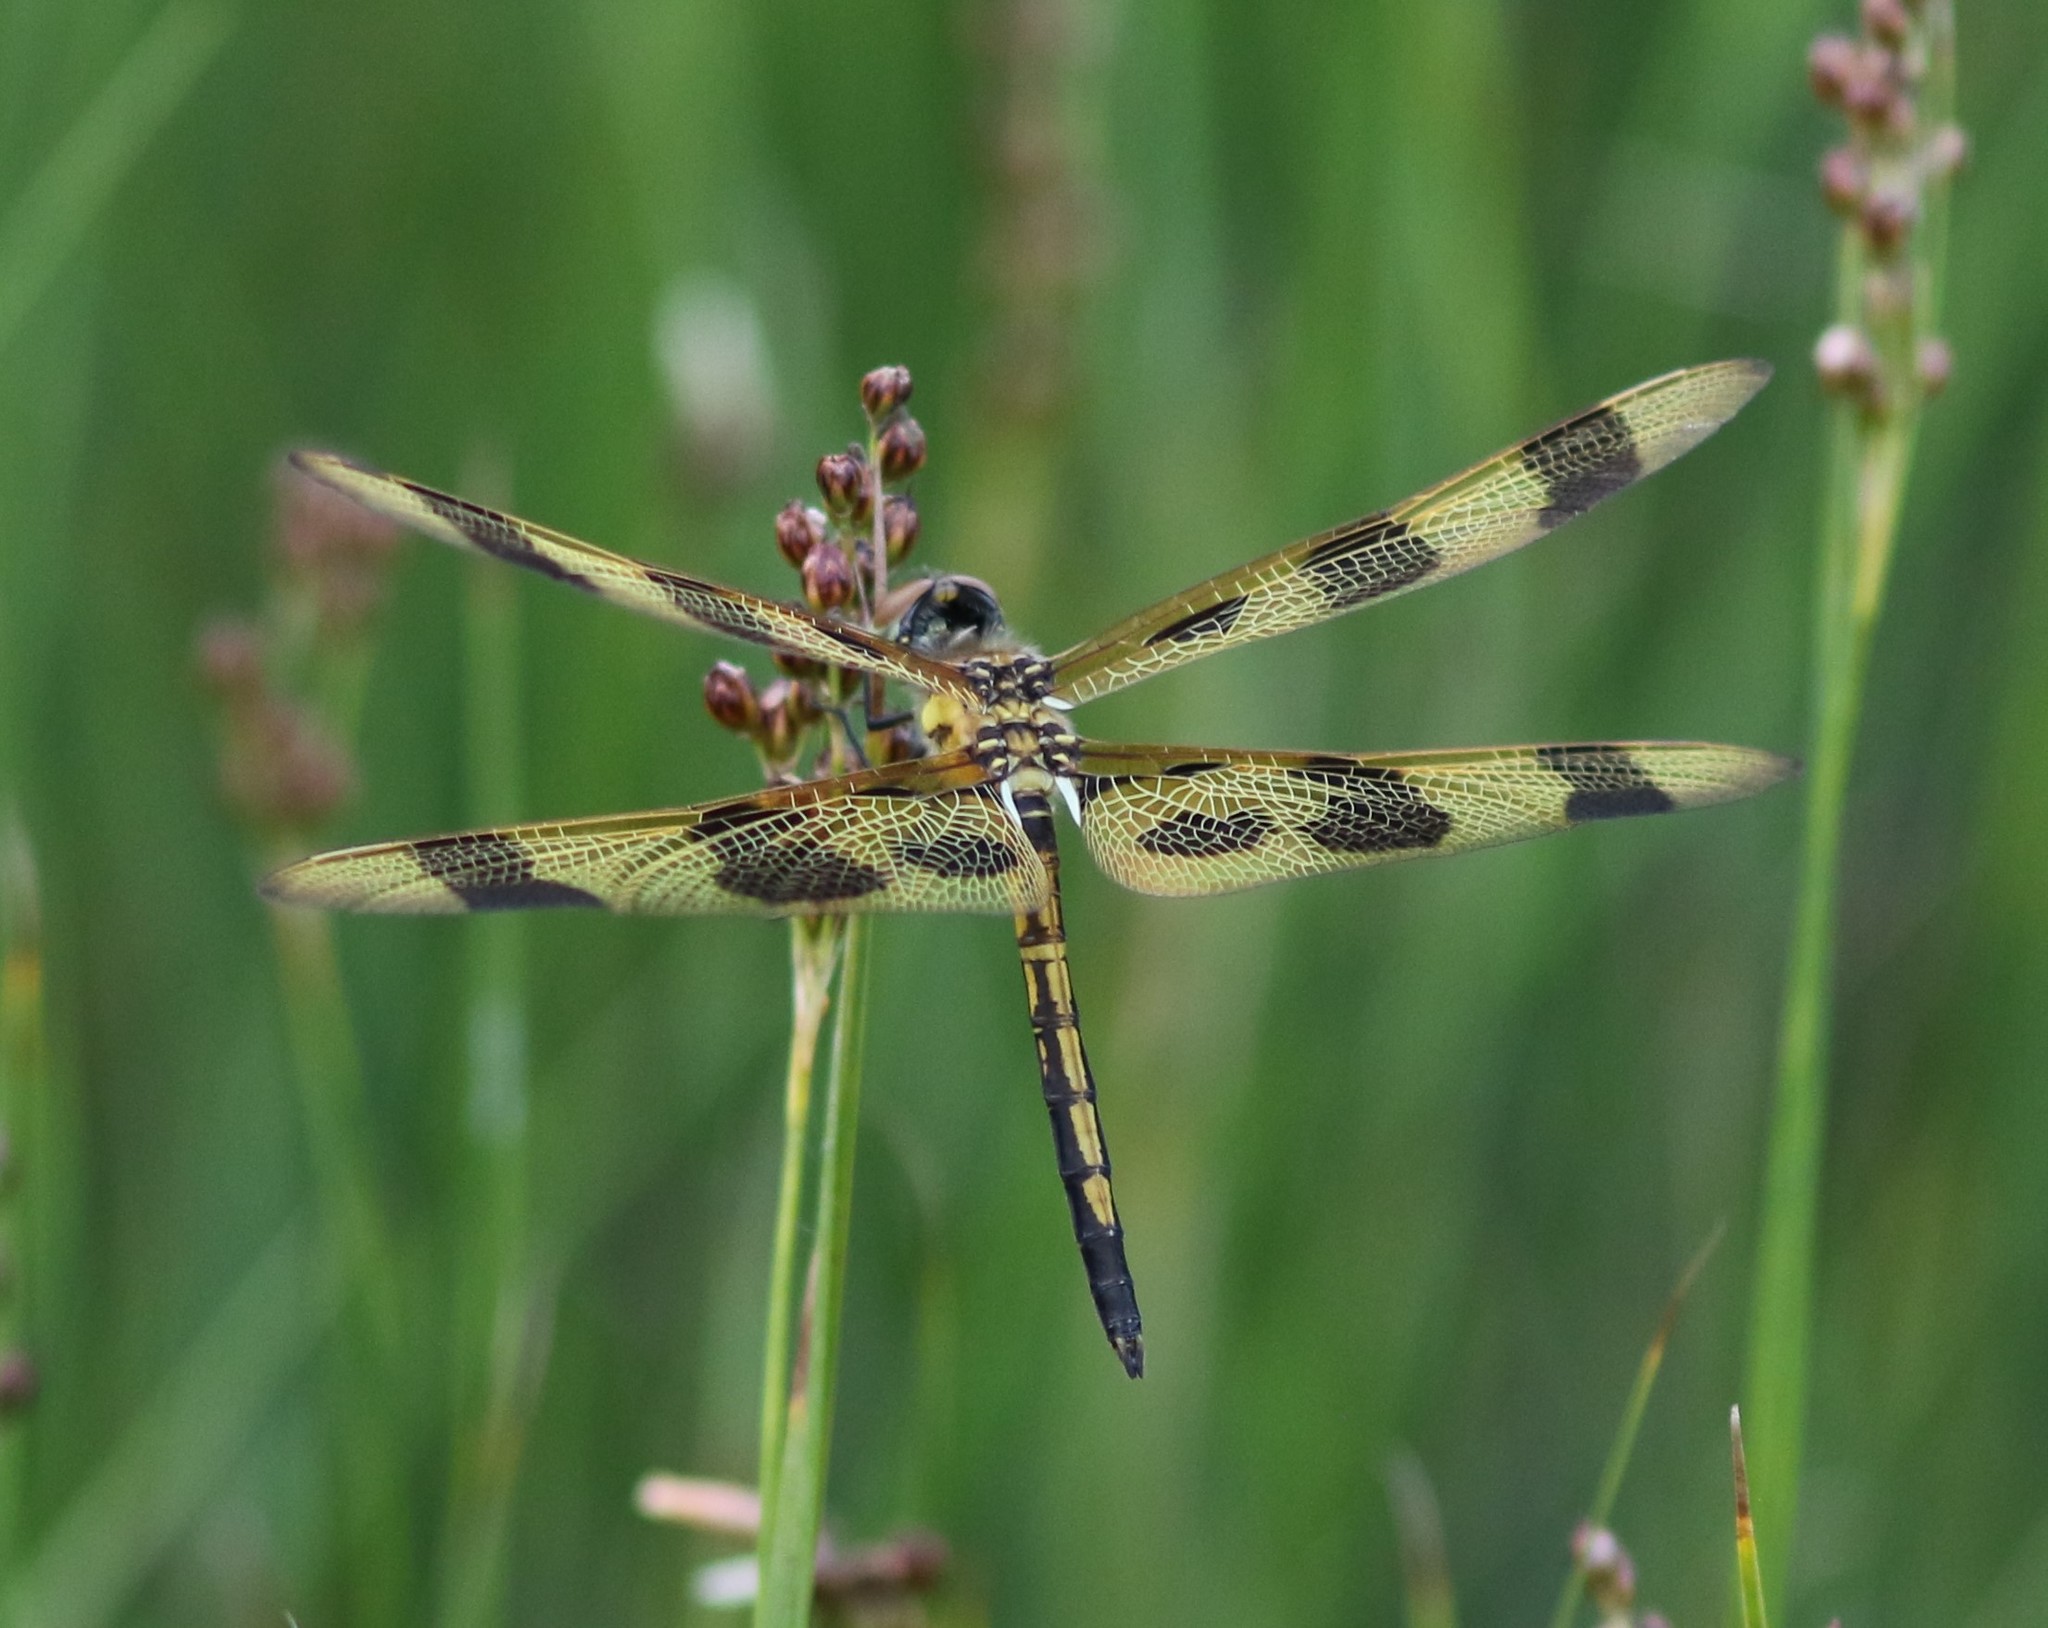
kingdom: Animalia
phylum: Arthropoda
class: Insecta
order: Odonata
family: Libellulidae
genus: Celithemis
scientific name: Celithemis eponina
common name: Halloween pennant
